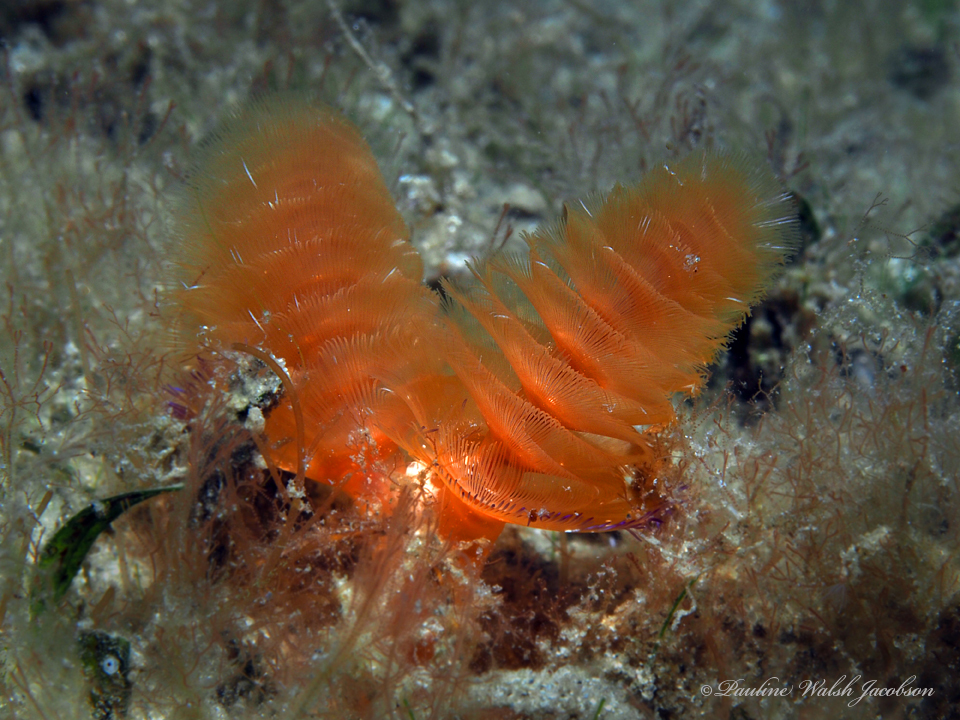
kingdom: Animalia
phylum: Phoronida
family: Phoronidae
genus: Phoronopsis
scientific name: Phoronopsis californica
